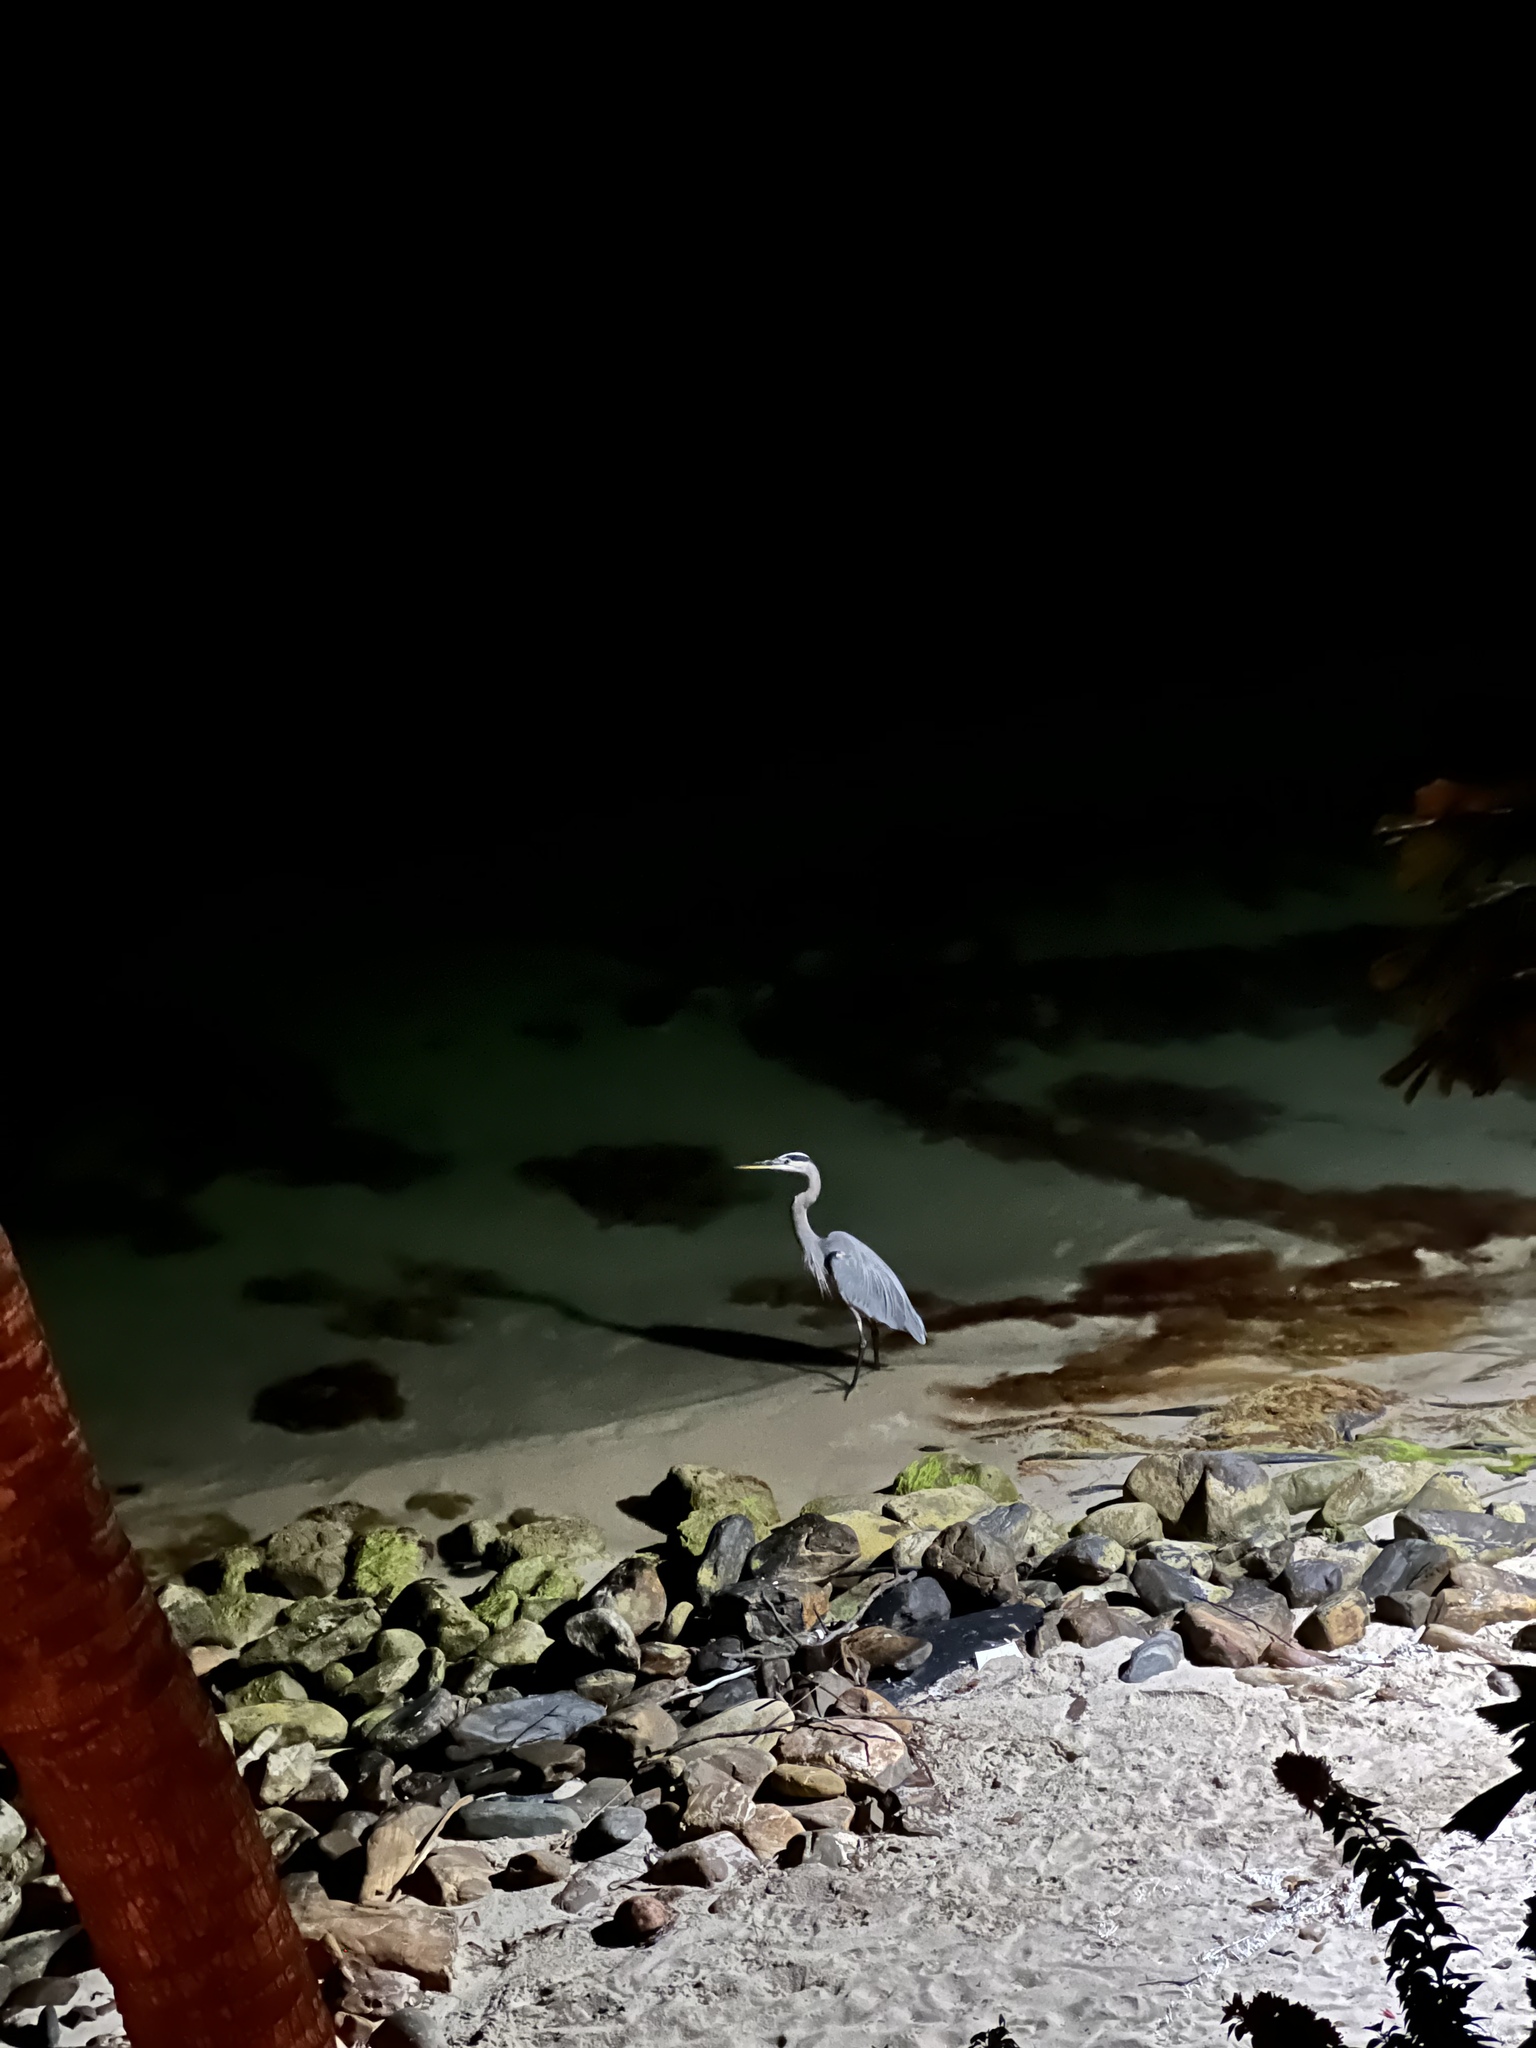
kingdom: Animalia
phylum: Chordata
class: Aves
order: Pelecaniformes
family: Ardeidae
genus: Ardea
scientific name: Ardea herodias
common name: Great blue heron
